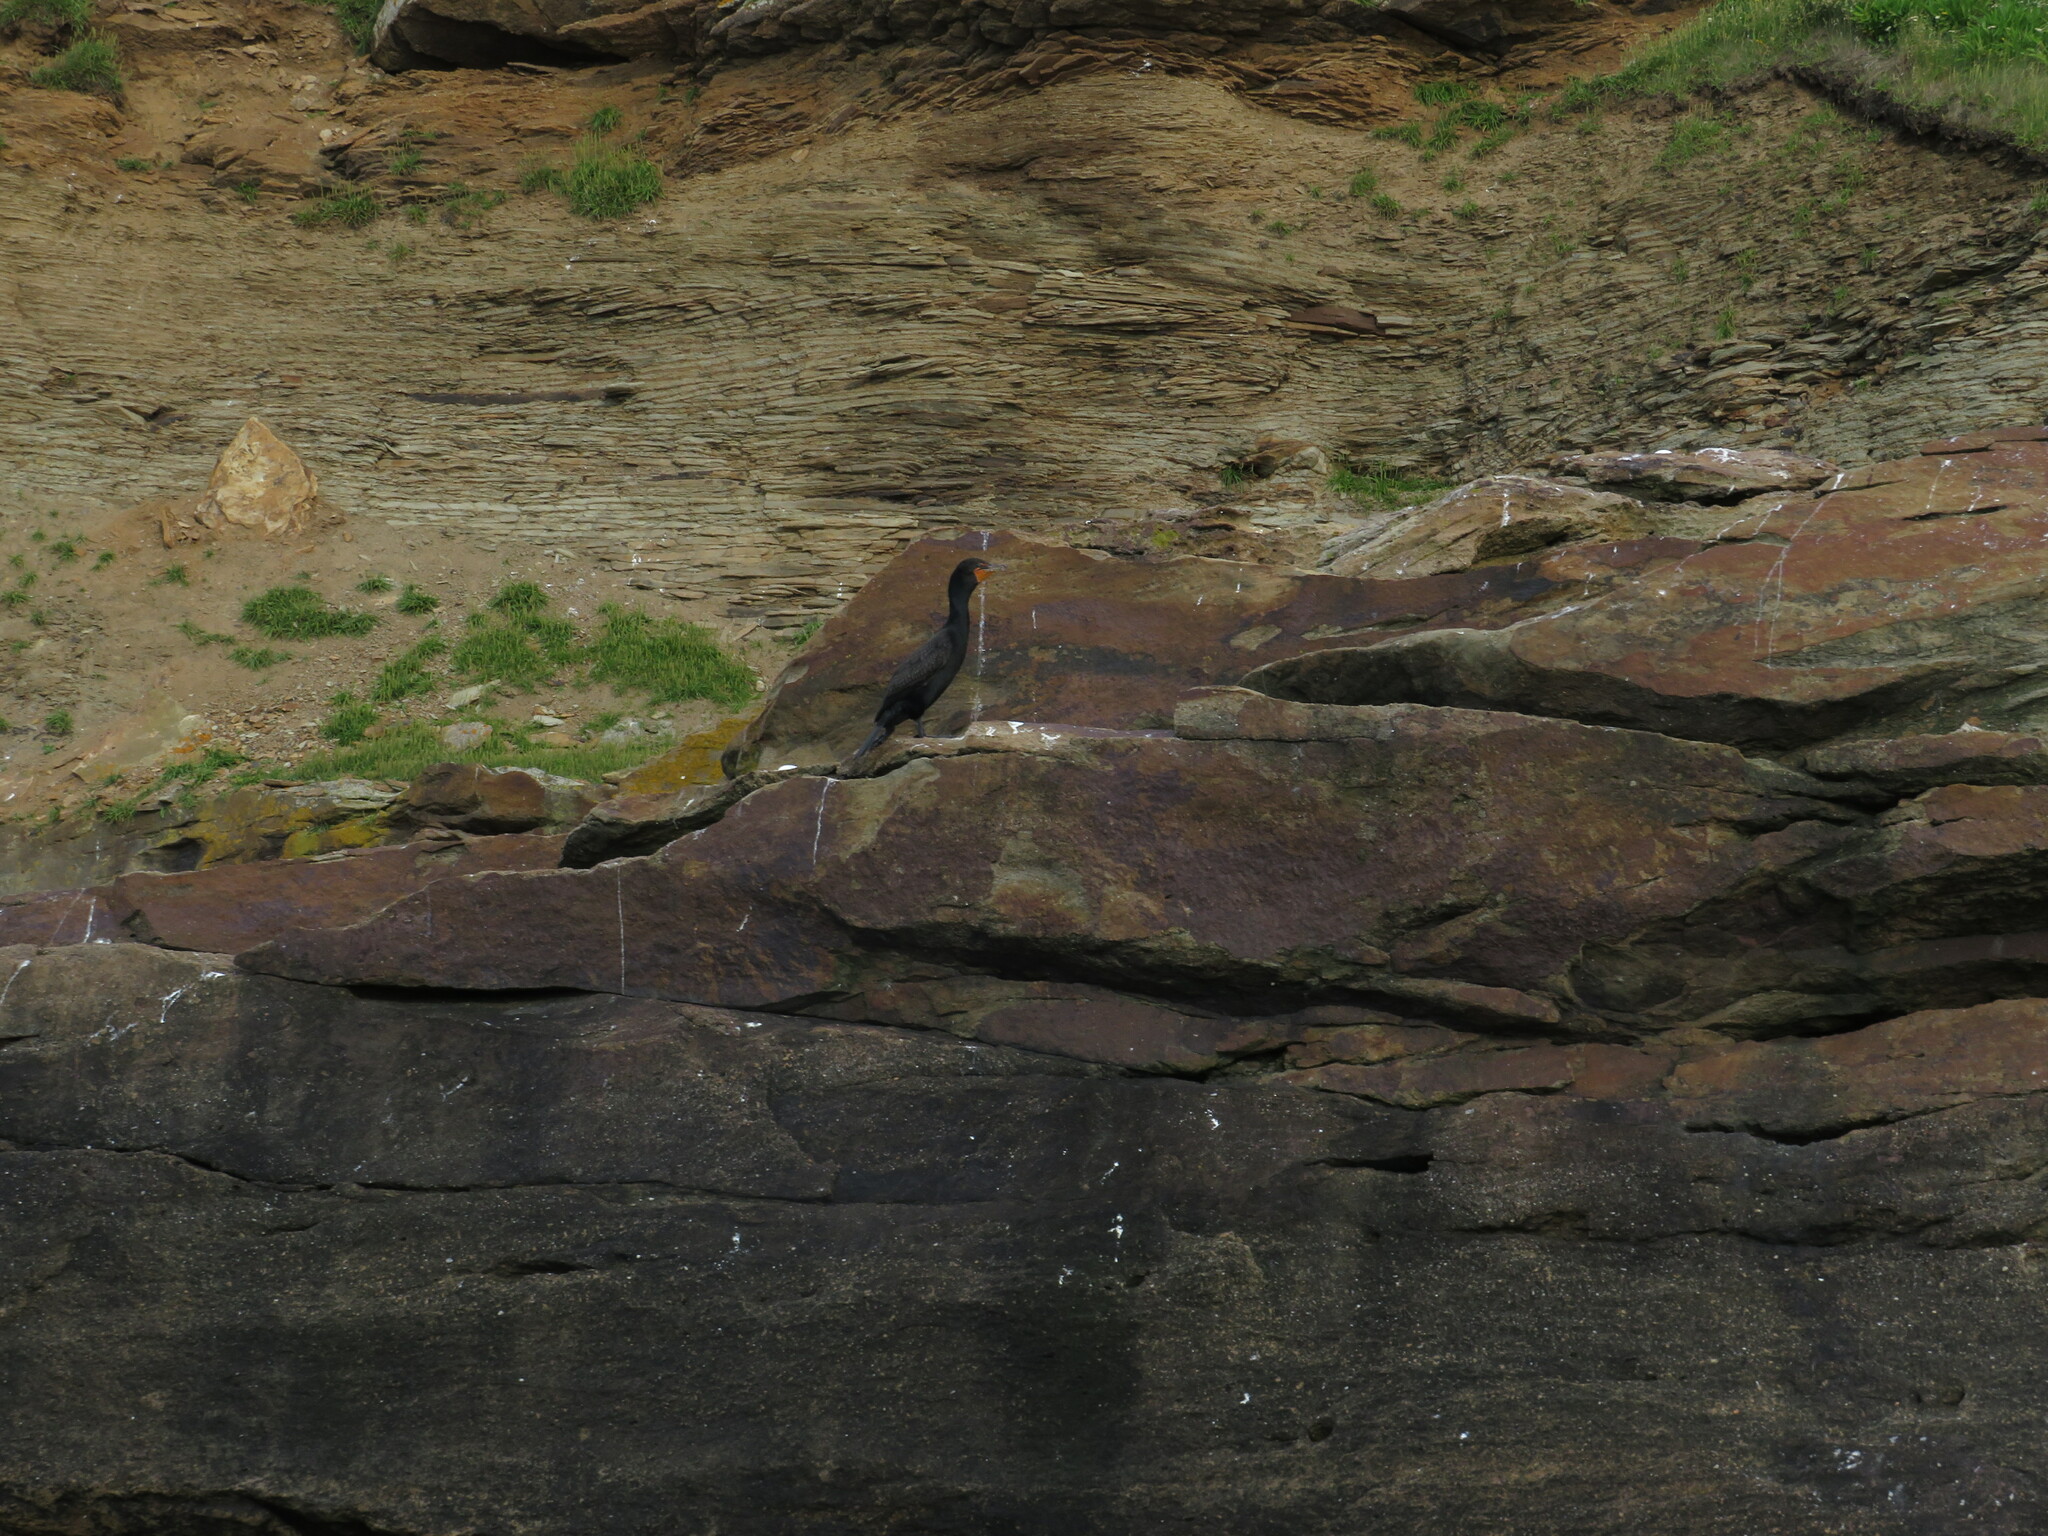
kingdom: Animalia
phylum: Chordata
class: Aves
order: Suliformes
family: Phalacrocoracidae
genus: Phalacrocorax
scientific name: Phalacrocorax auritus
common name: Double-crested cormorant
